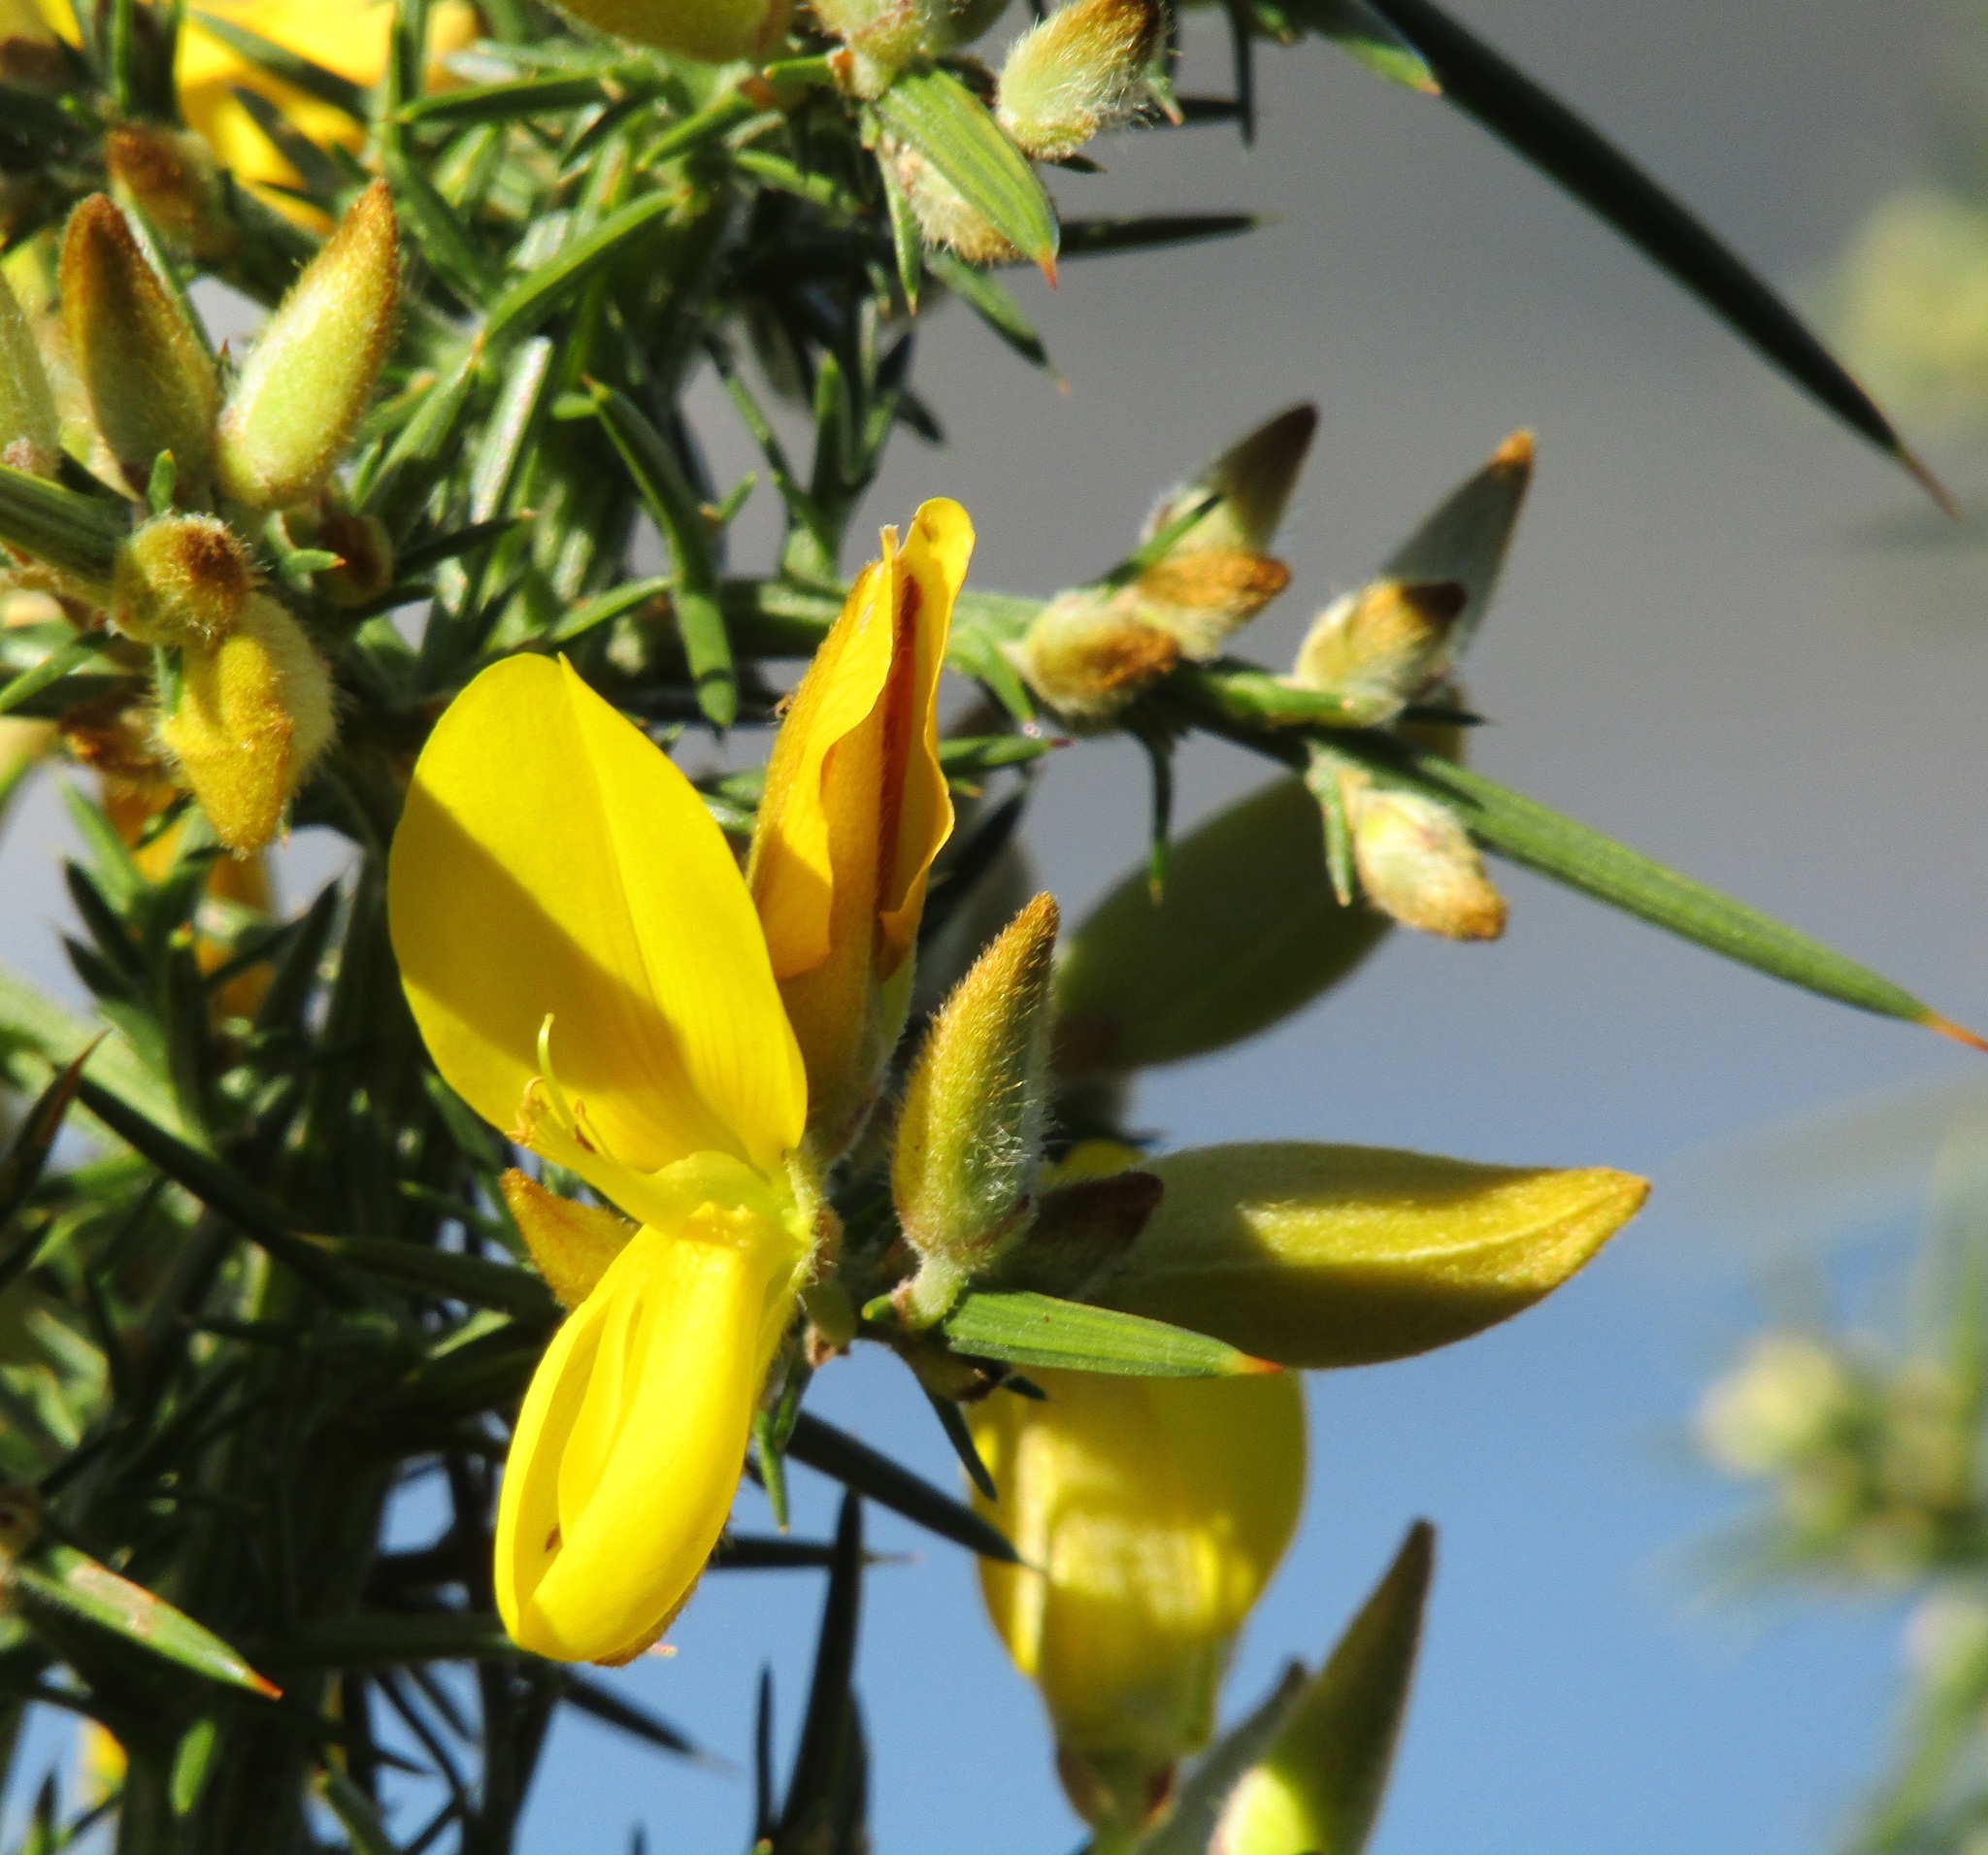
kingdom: Plantae
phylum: Tracheophyta
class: Magnoliopsida
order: Fabales
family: Fabaceae
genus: Ulex
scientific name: Ulex europaeus
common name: Common gorse
